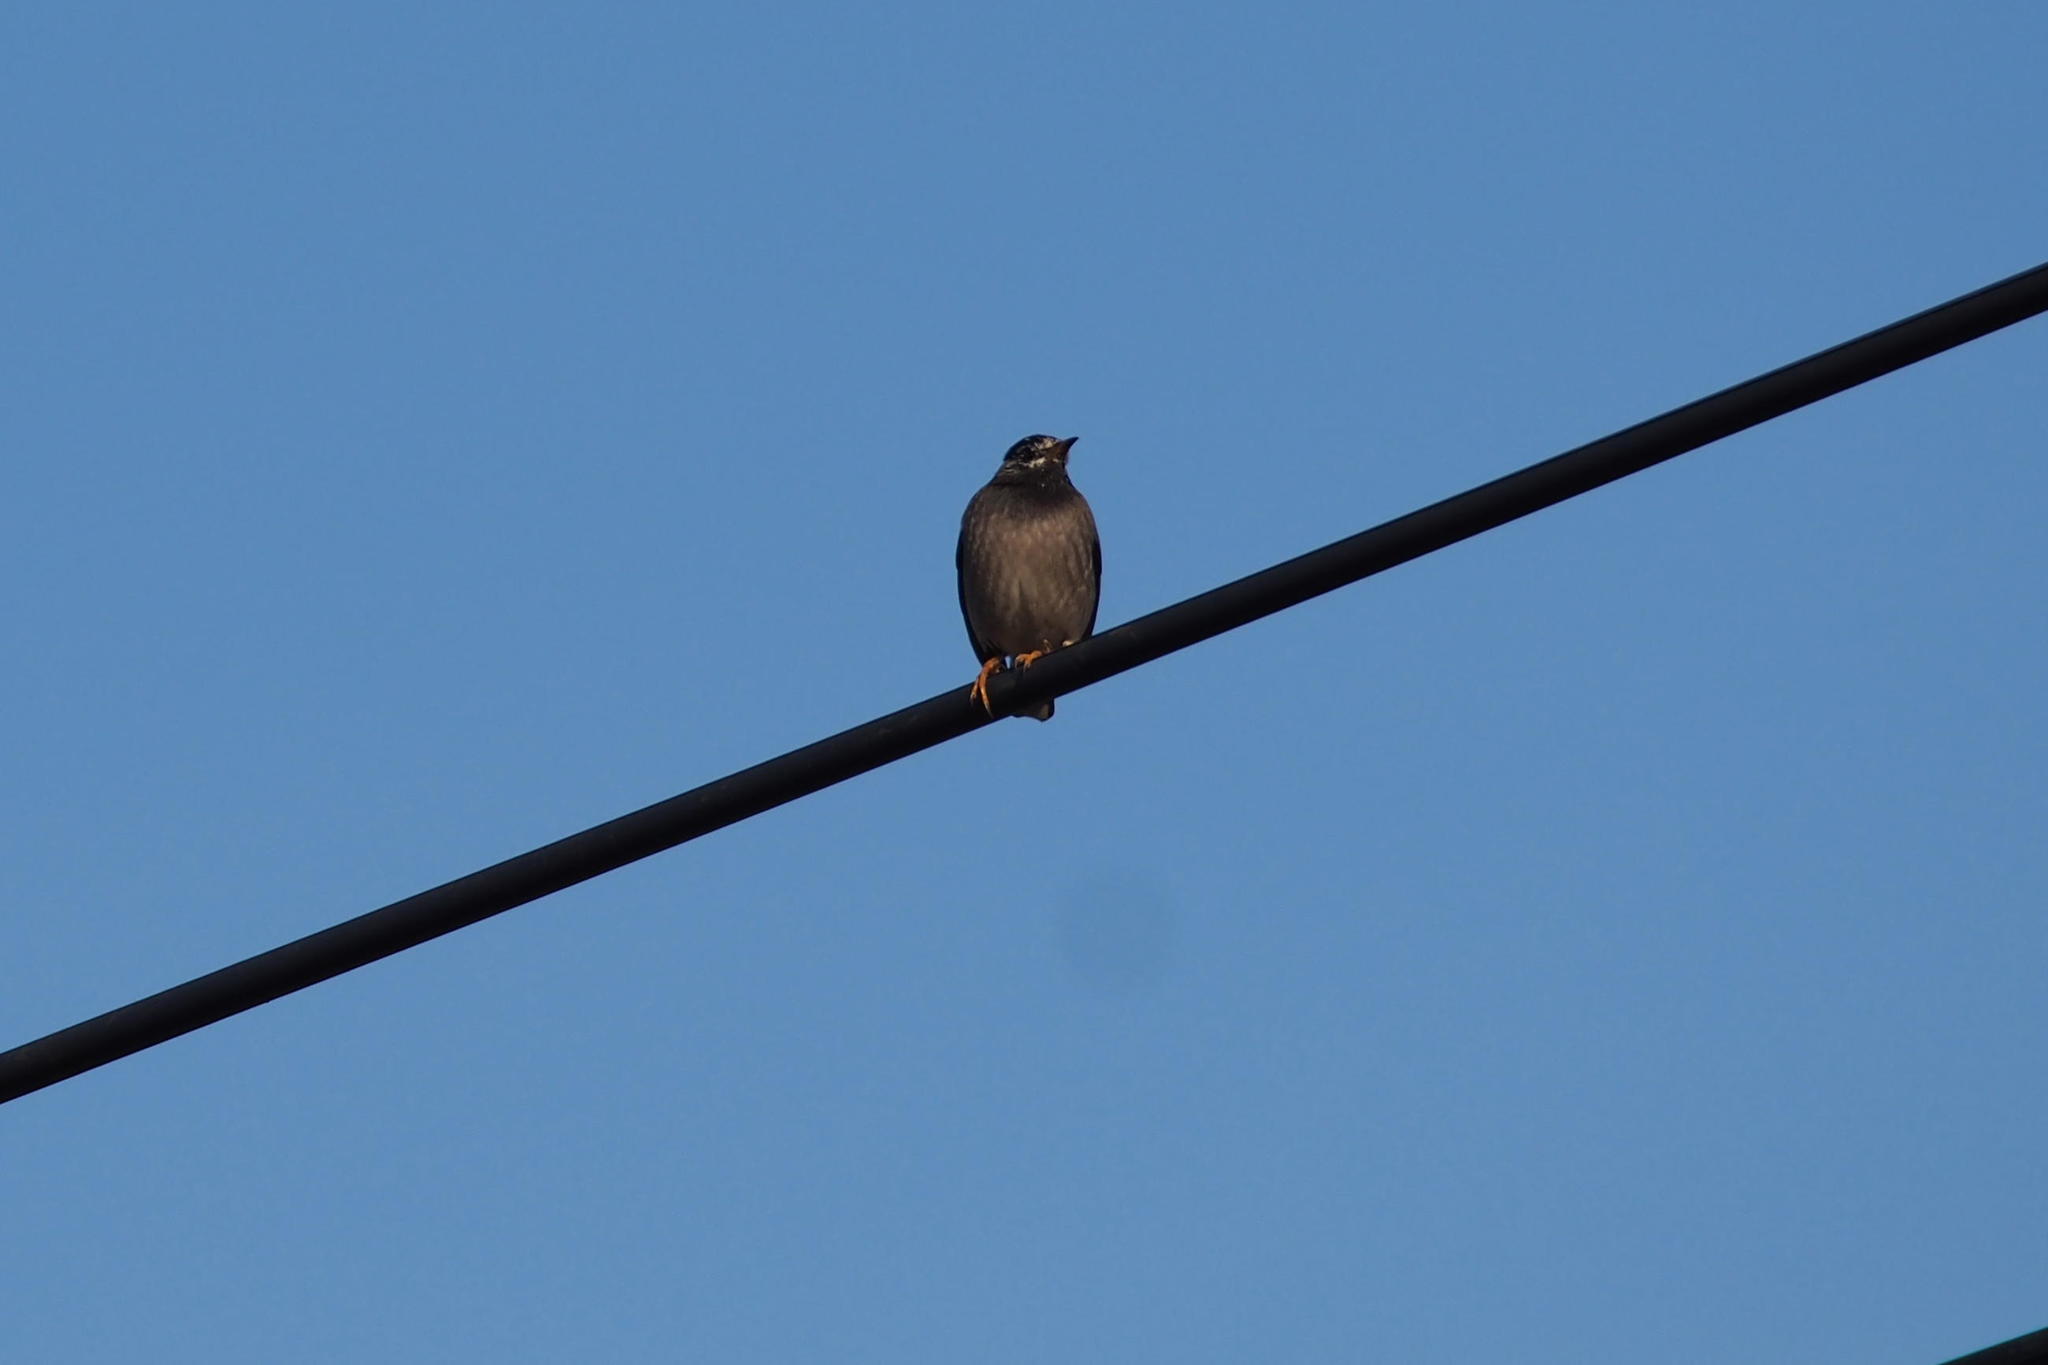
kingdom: Animalia
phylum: Chordata
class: Aves
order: Passeriformes
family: Sturnidae
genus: Spodiopsar
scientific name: Spodiopsar cineraceus
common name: White-cheeked starling
